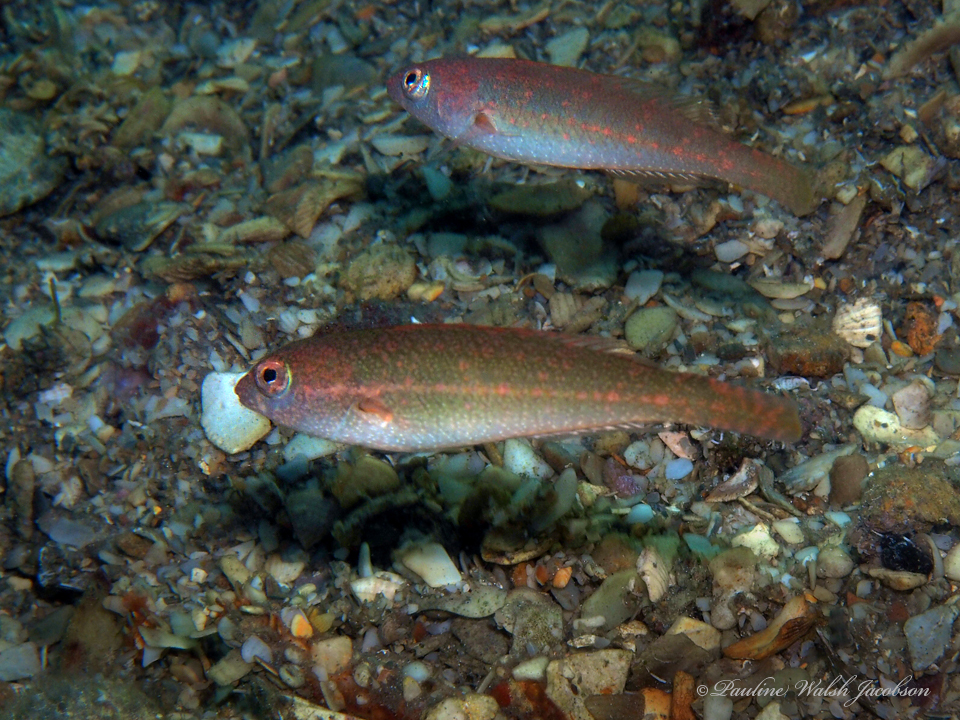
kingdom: Animalia
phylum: Chordata
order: Perciformes
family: Scaridae
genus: Cryptotomus
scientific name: Cryptotomus roseus
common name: Bluelip parrotfish
